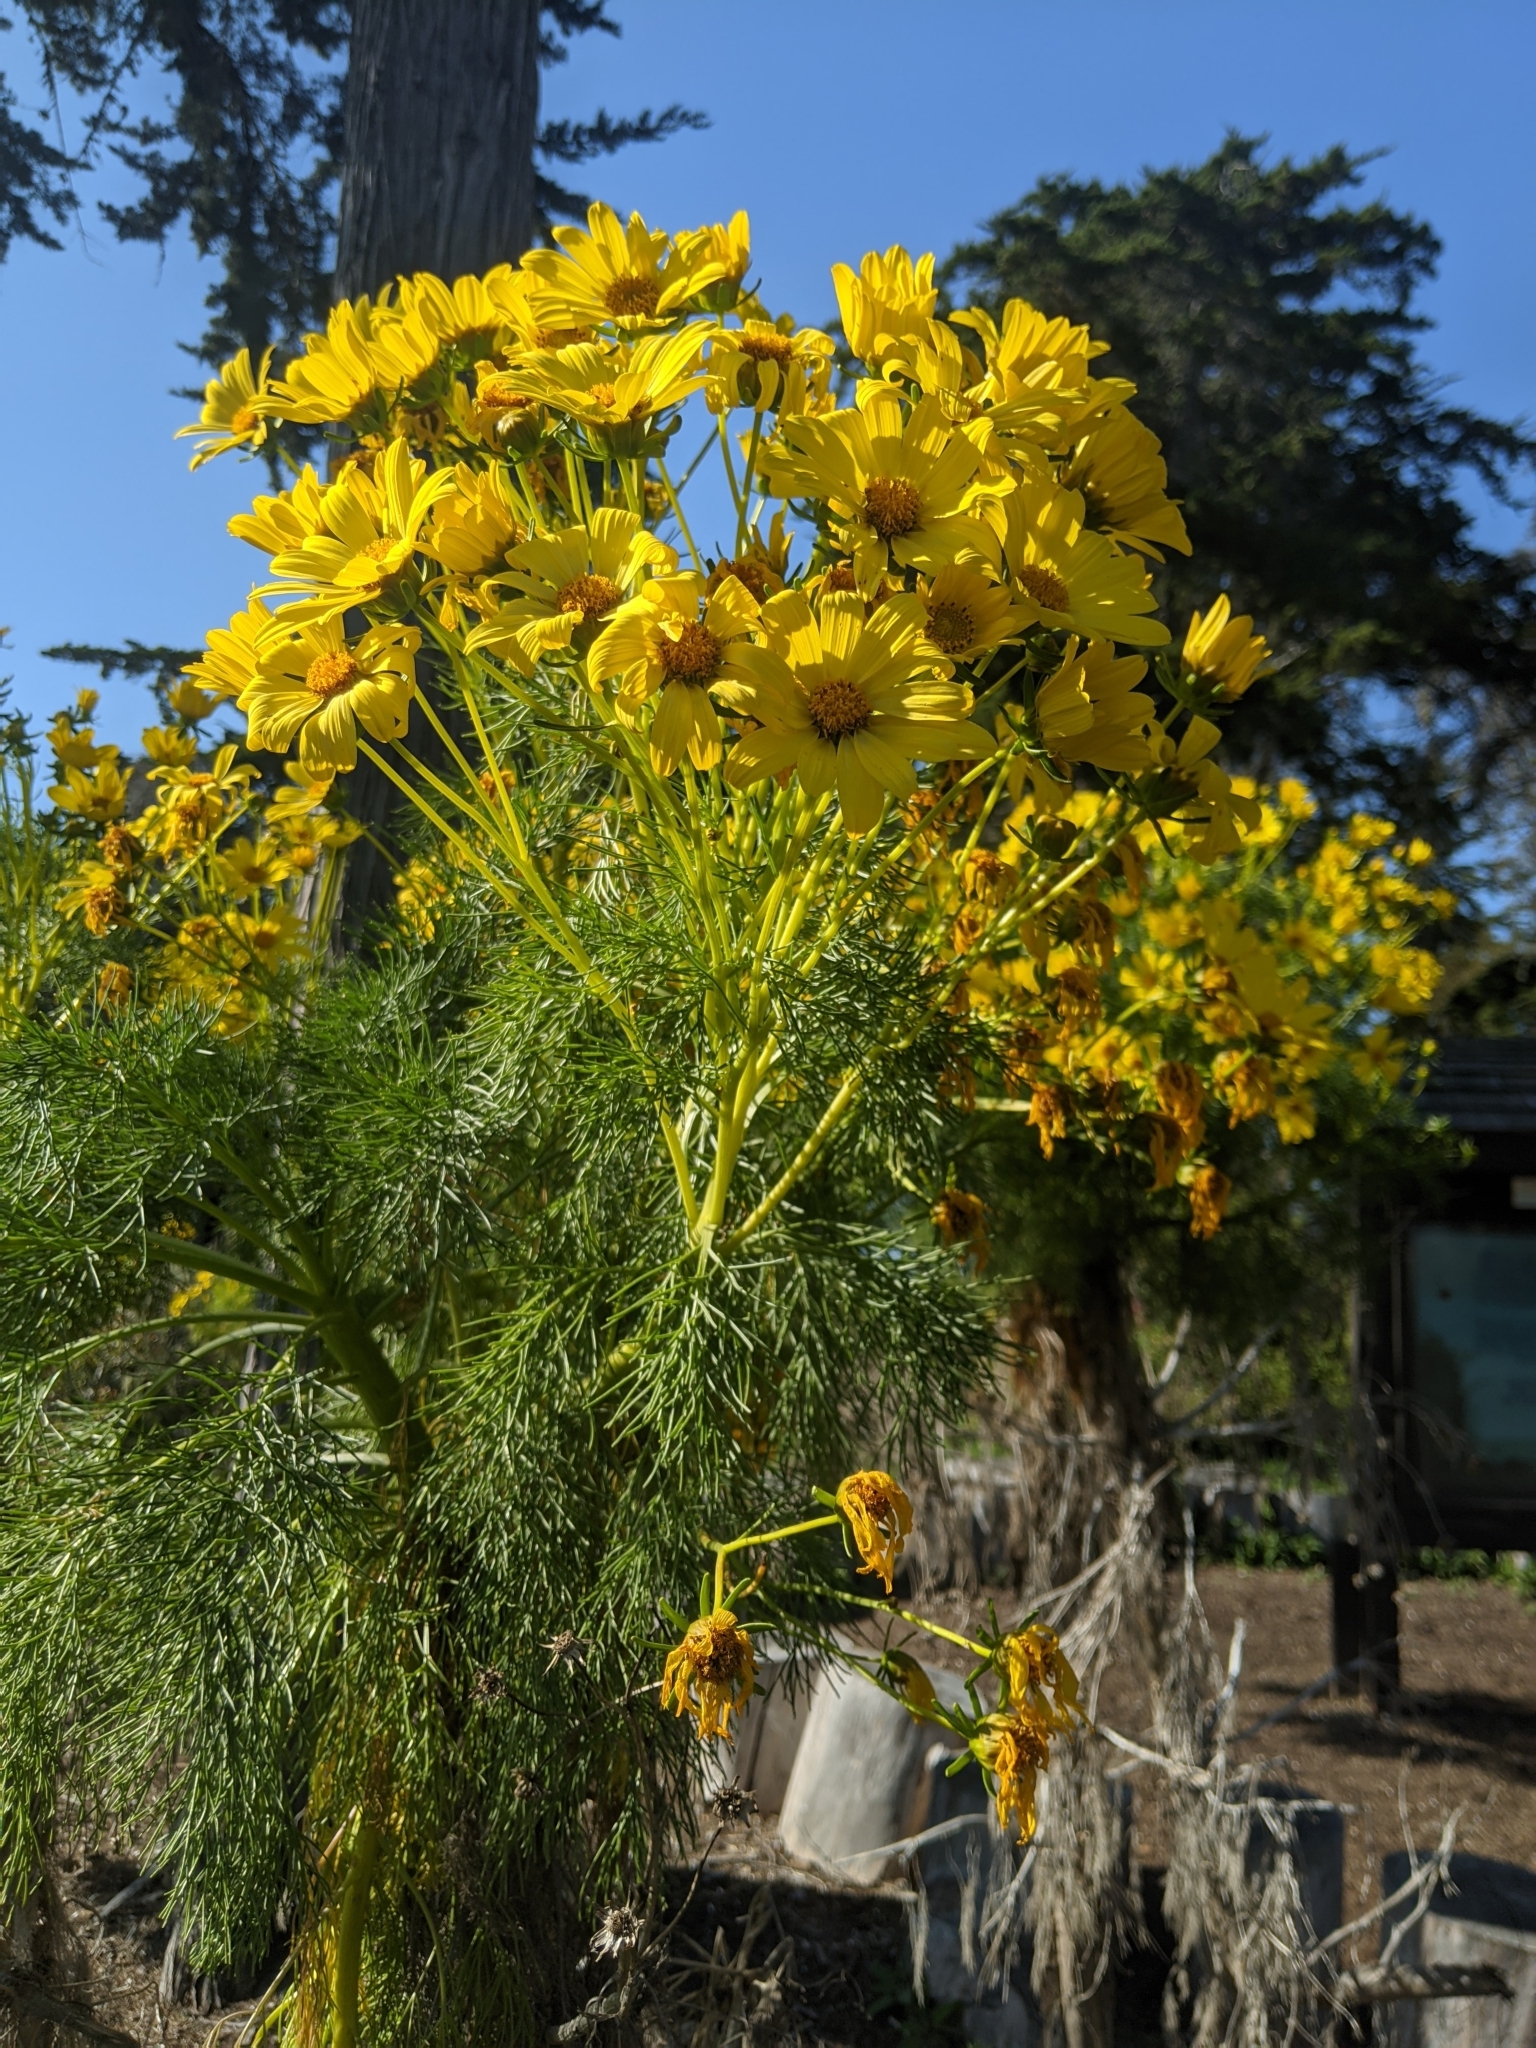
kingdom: Plantae
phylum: Tracheophyta
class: Magnoliopsida
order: Asterales
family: Asteraceae
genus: Coreopsis
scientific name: Coreopsis gigantea
